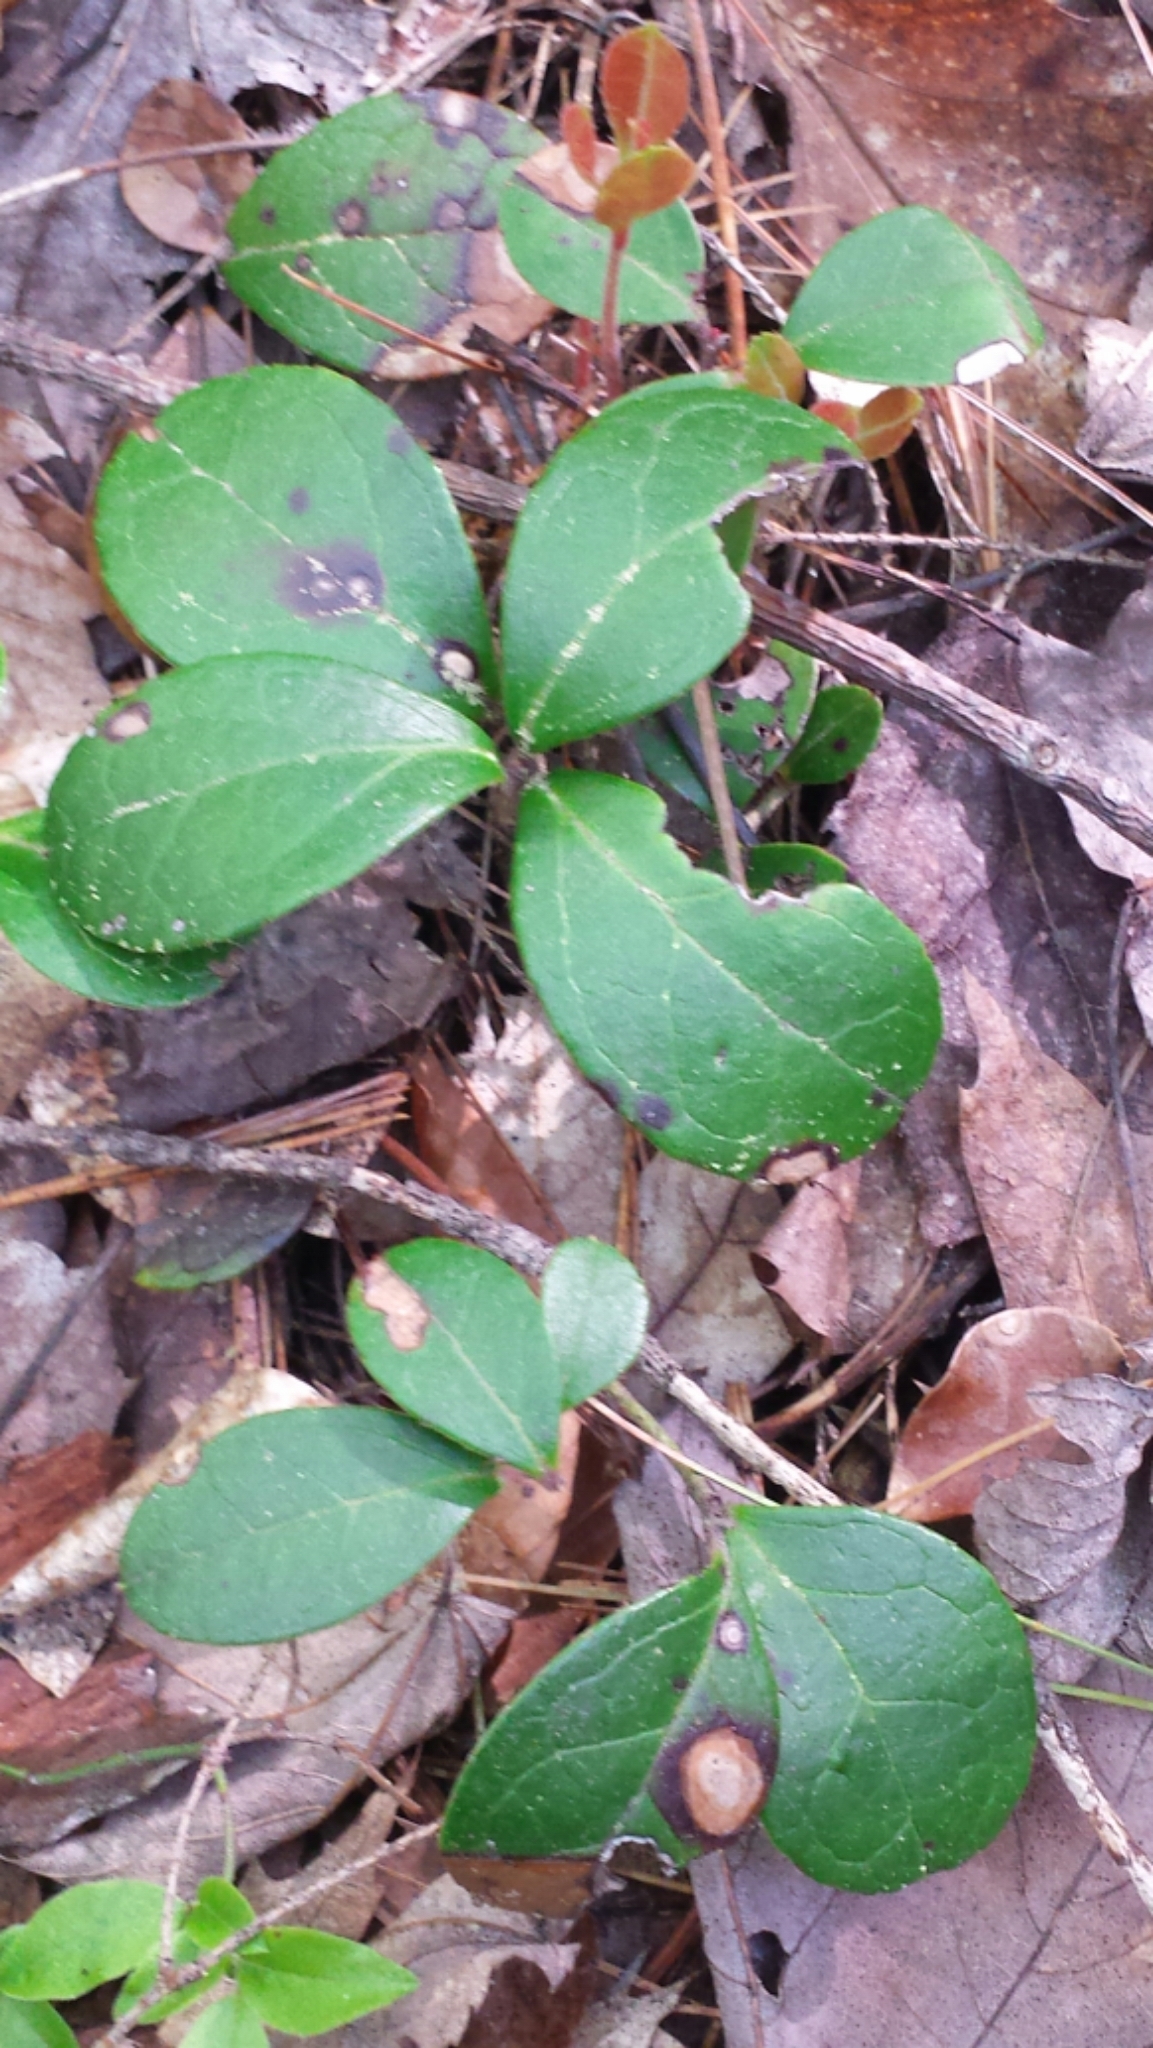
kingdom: Plantae
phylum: Tracheophyta
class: Magnoliopsida
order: Ericales
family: Ericaceae
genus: Gaultheria
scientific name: Gaultheria procumbens
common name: Checkerberry
